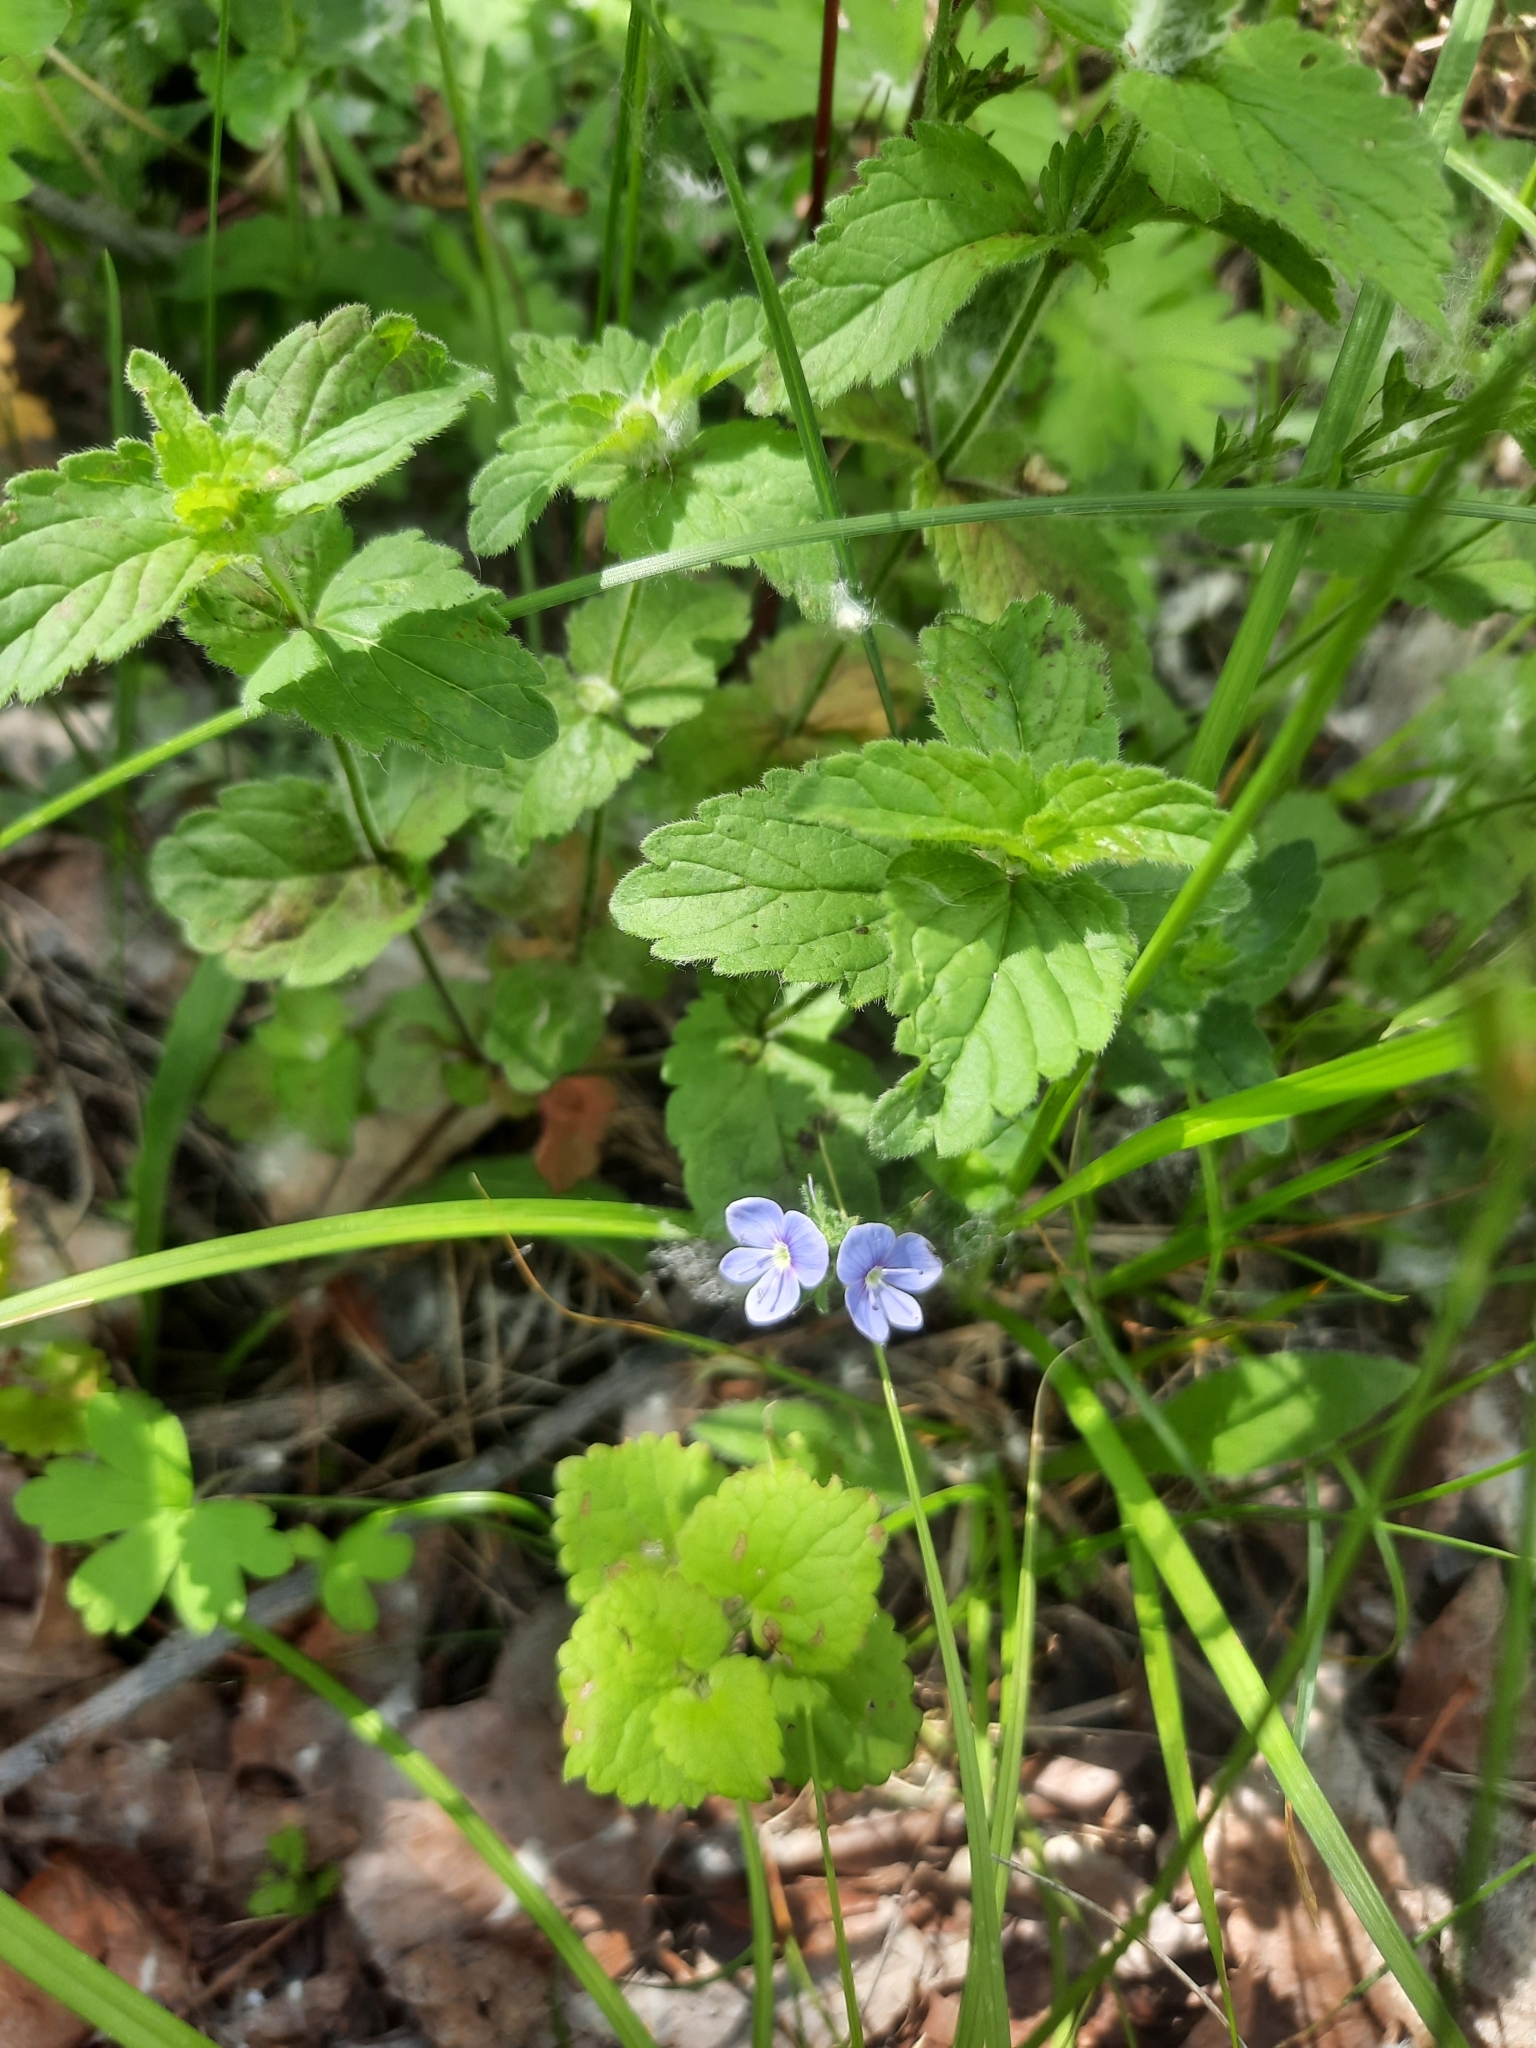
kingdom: Plantae
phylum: Tracheophyta
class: Magnoliopsida
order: Lamiales
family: Plantaginaceae
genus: Veronica
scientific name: Veronica chamaedrys
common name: Germander speedwell
